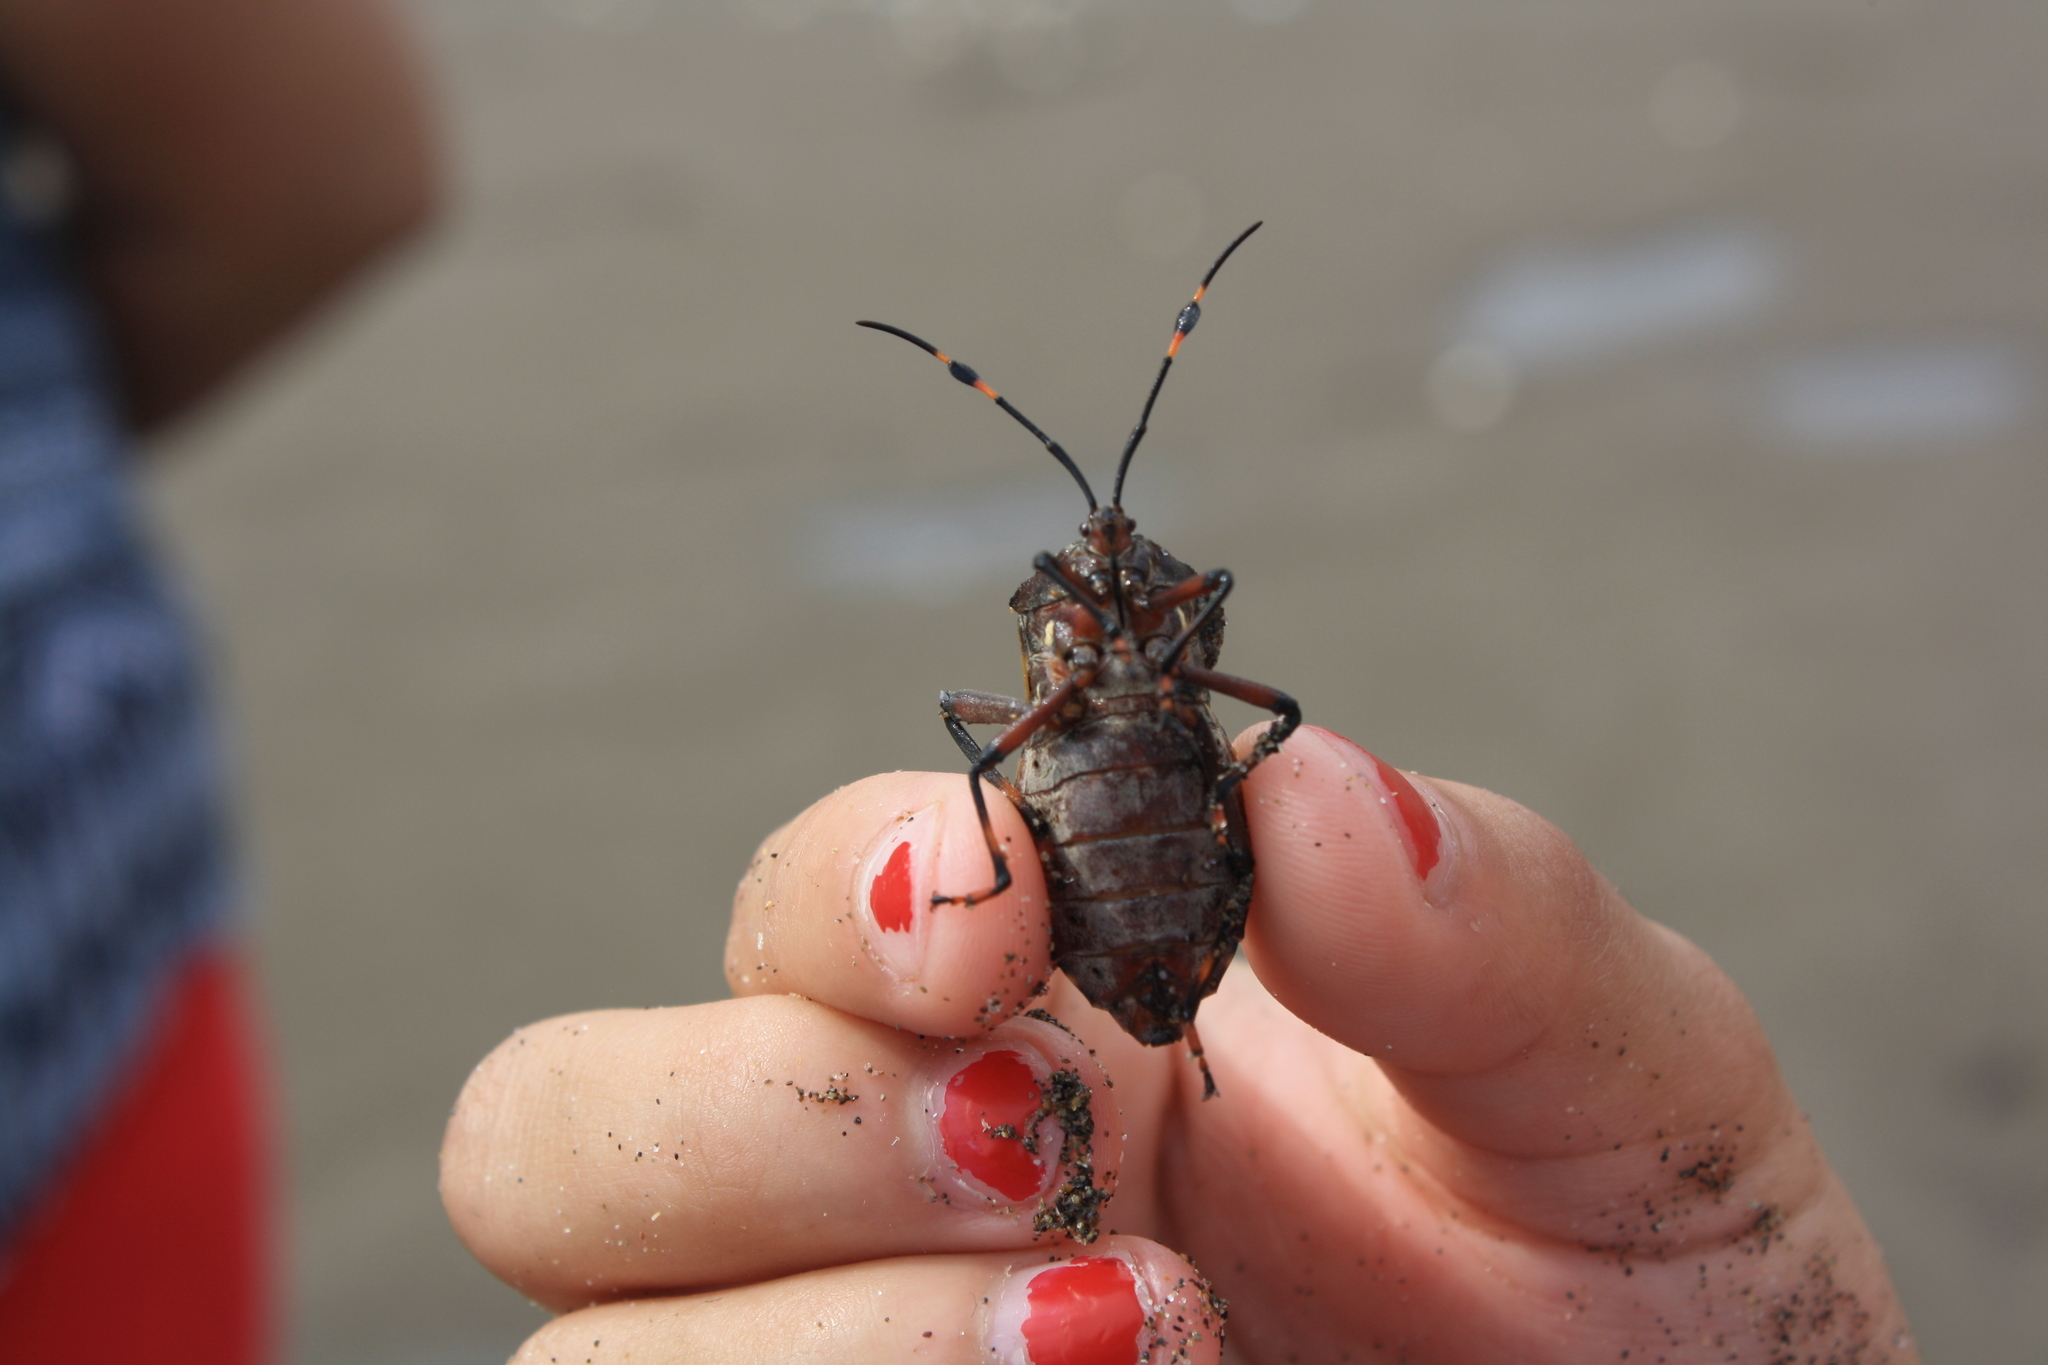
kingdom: Animalia
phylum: Arthropoda
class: Insecta
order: Hemiptera
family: Coreidae
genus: Pachylis
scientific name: Pachylis nervosus
